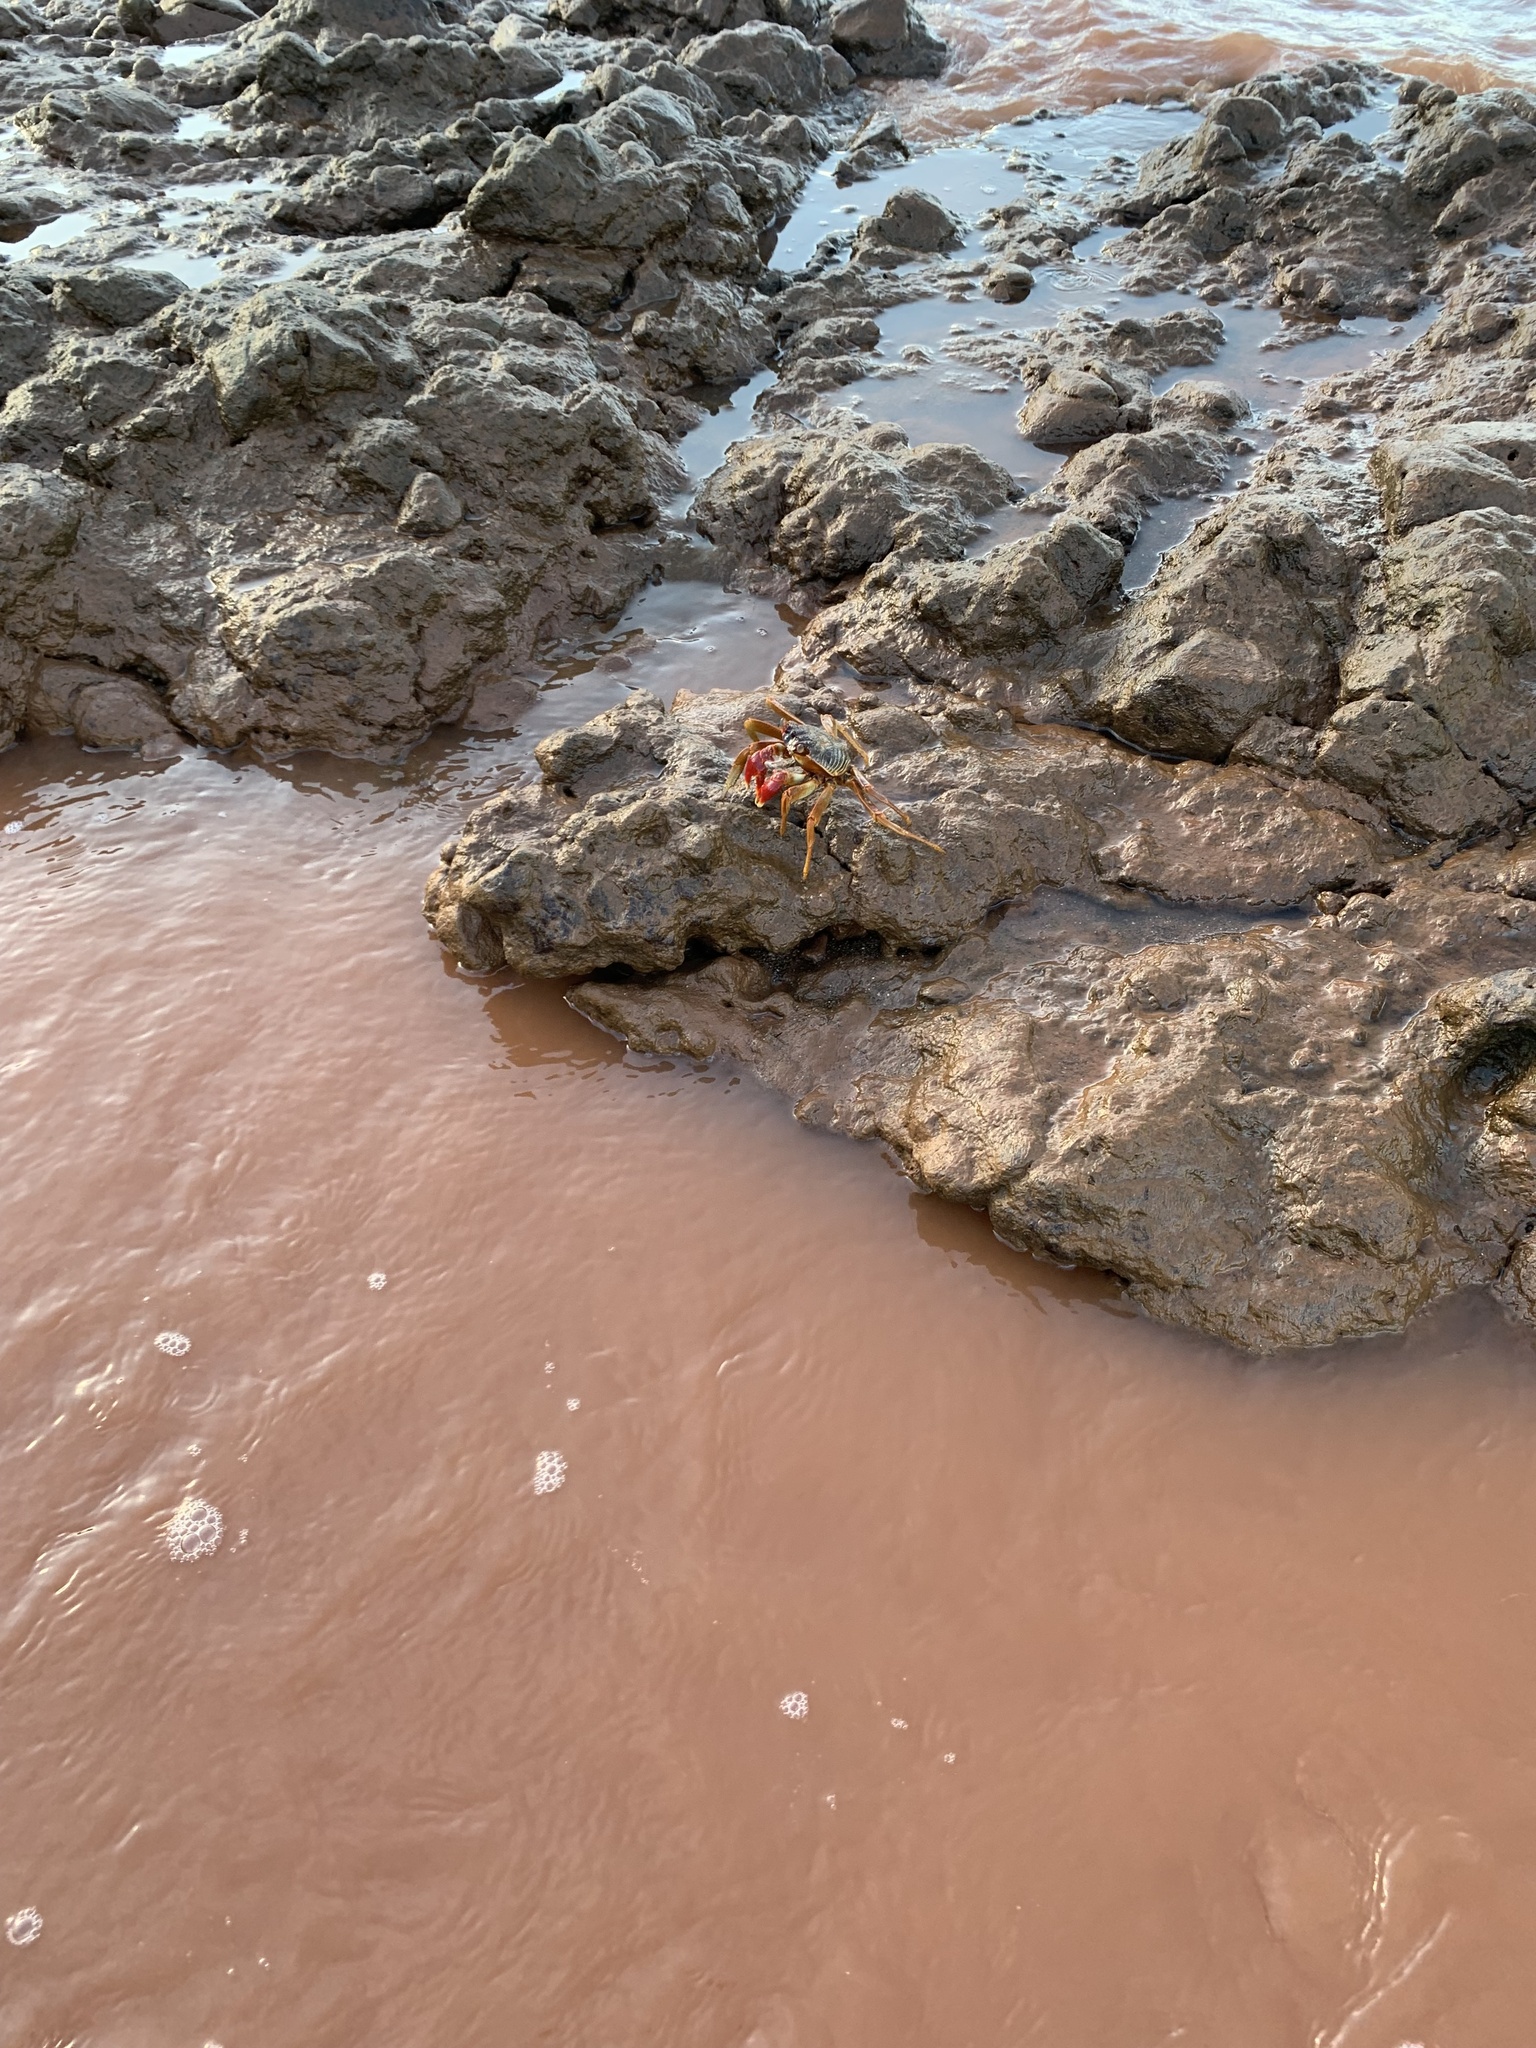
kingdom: Animalia
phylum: Arthropoda
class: Malacostraca
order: Decapoda
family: Grapsidae
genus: Grapsus
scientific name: Grapsus tenuicrustatus
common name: Natal lightfoot crab
